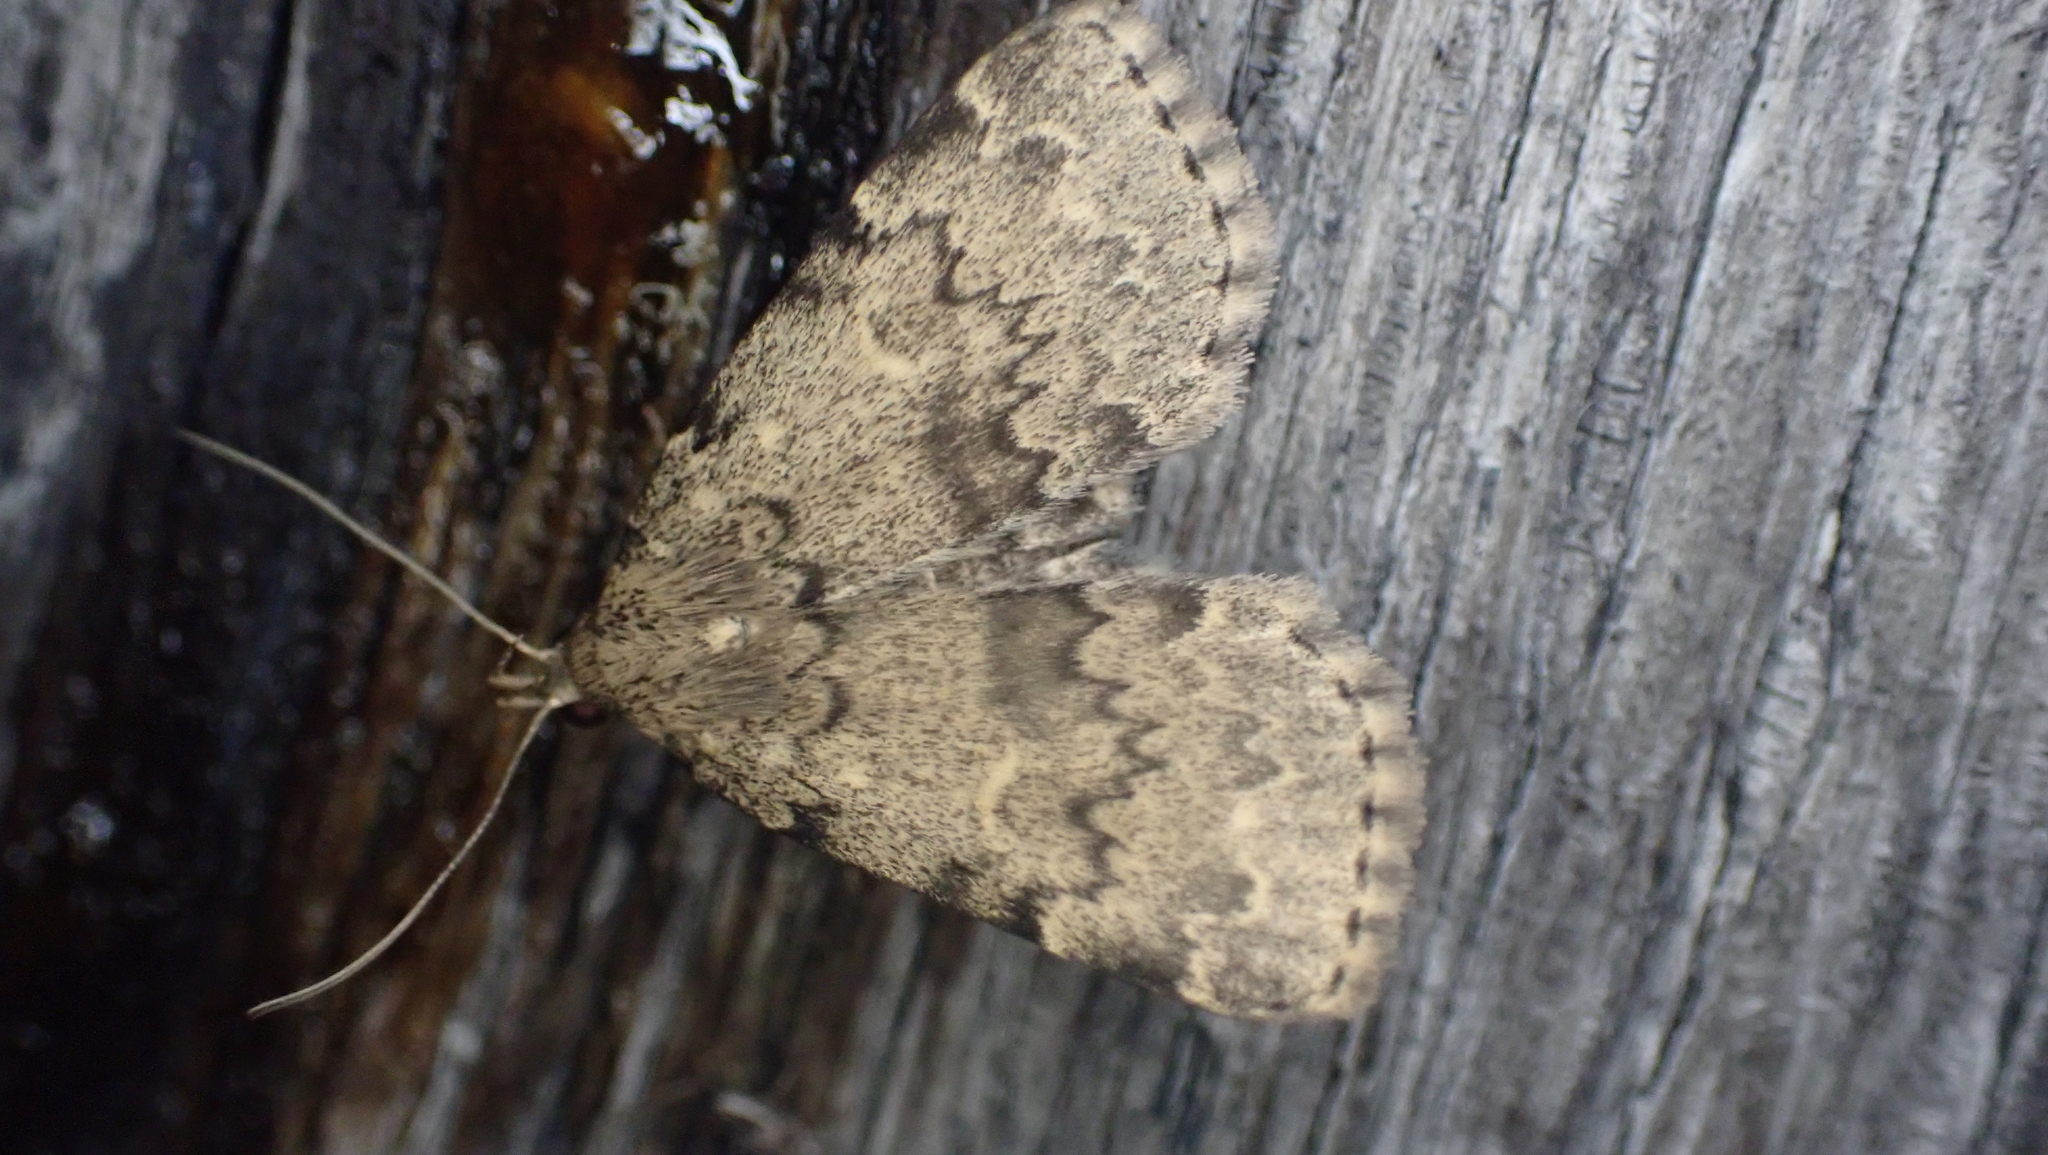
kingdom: Animalia
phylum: Arthropoda
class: Insecta
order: Lepidoptera
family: Erebidae
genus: Idia
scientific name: Idia denticulalis
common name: Toothed idia moth
